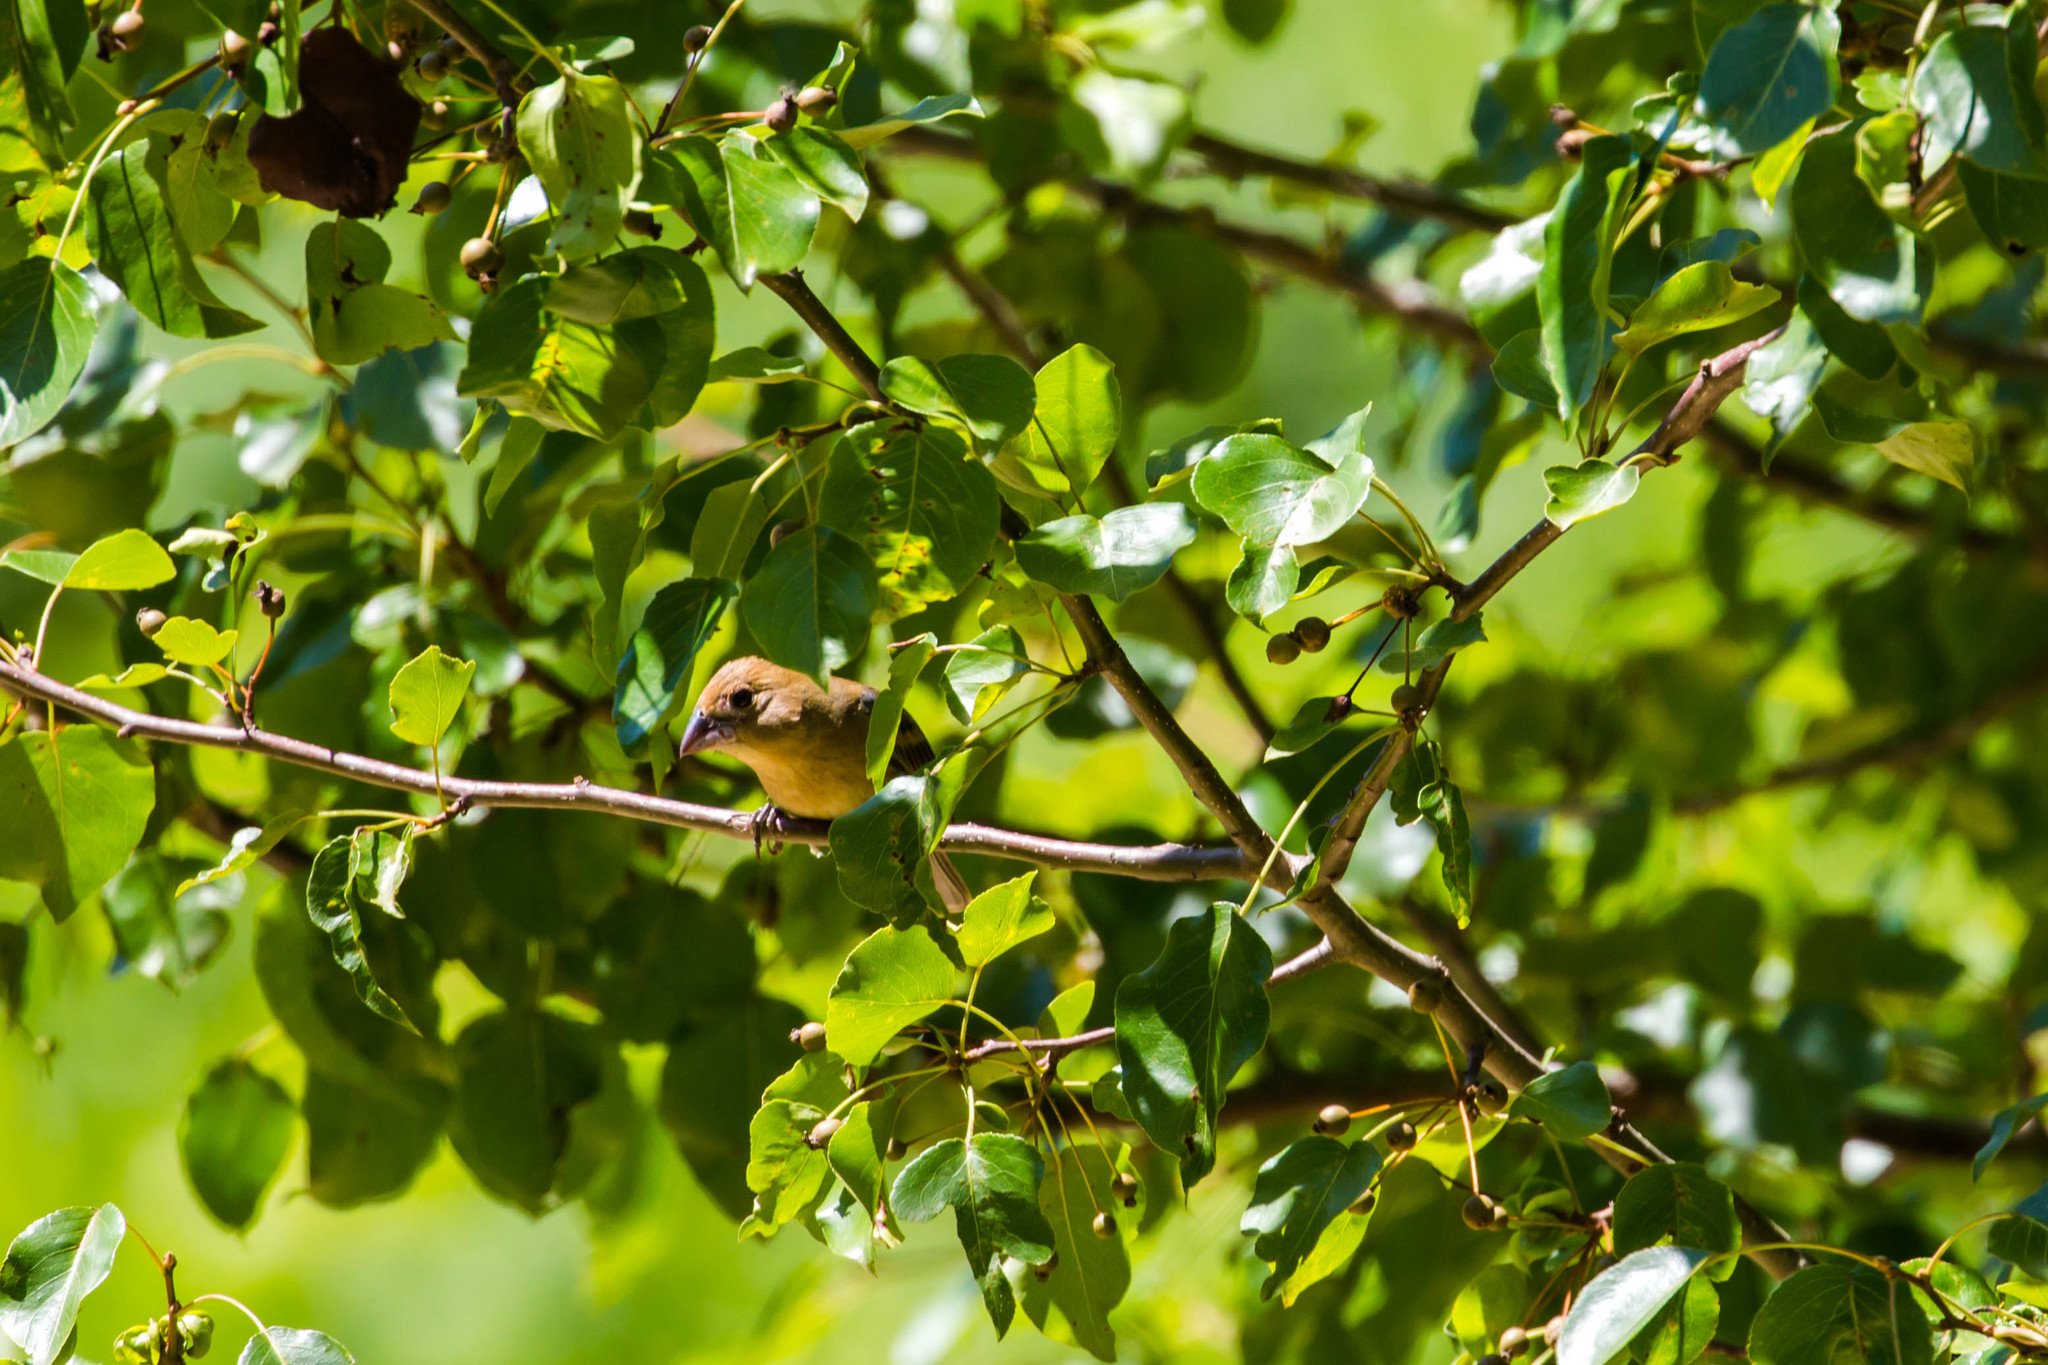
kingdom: Animalia
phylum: Chordata
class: Aves
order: Passeriformes
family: Cardinalidae
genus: Passerina
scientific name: Passerina caerulea
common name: Blue grosbeak
